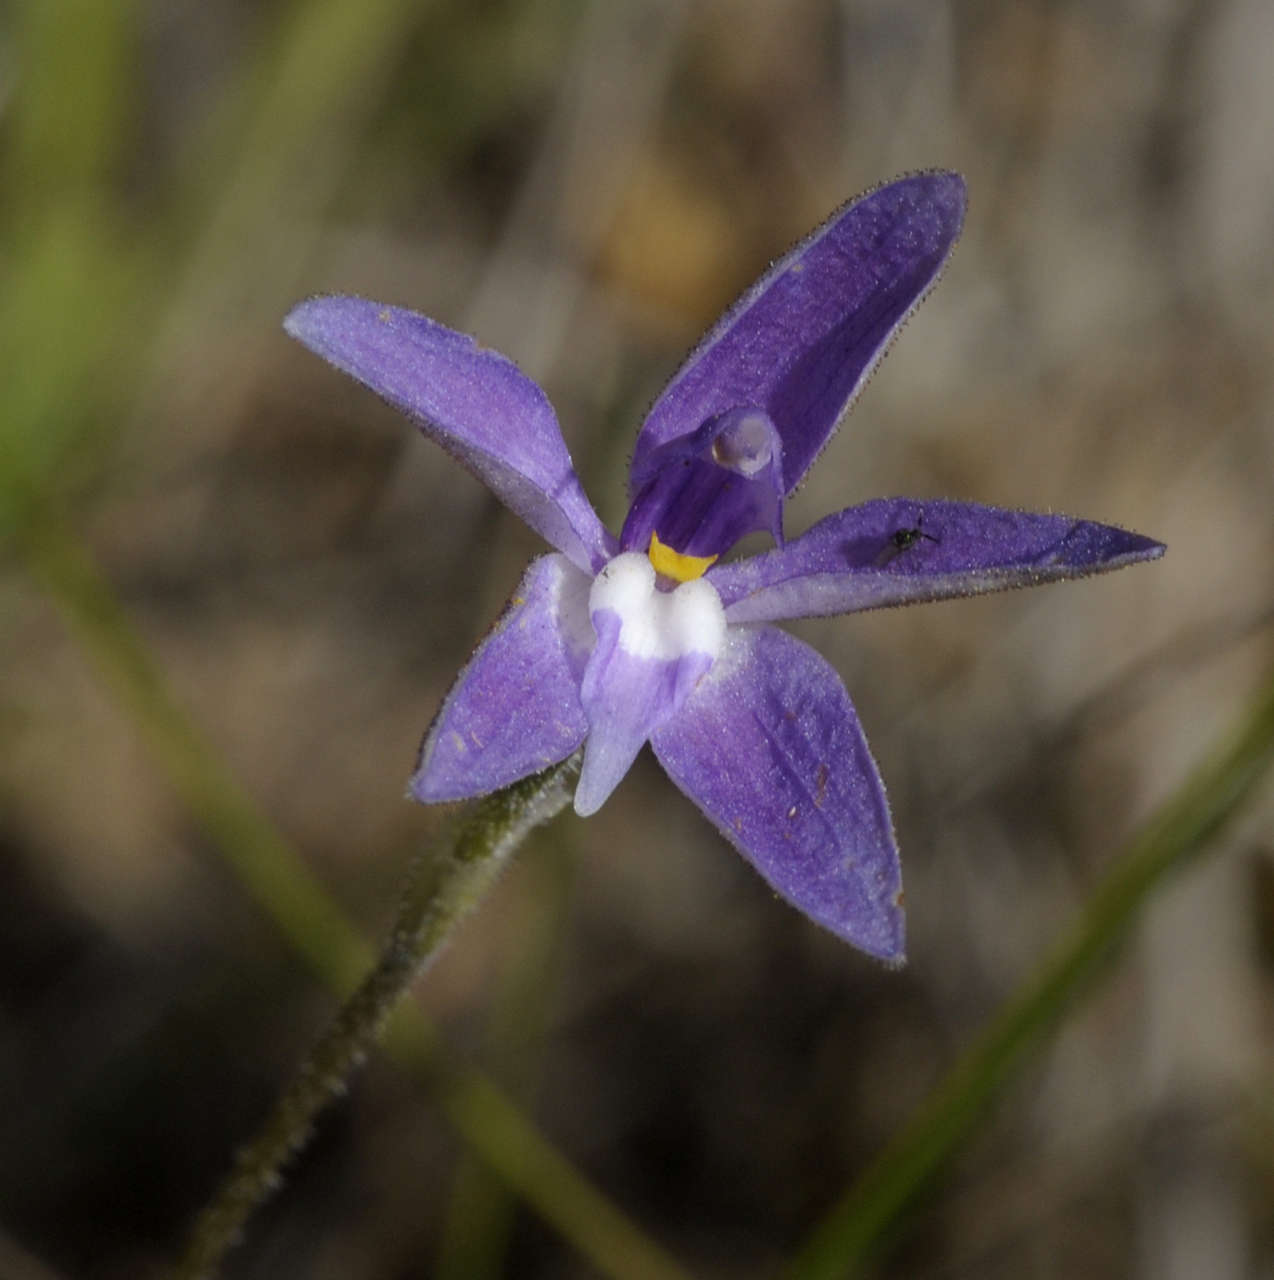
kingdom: Plantae
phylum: Tracheophyta
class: Liliopsida
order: Asparagales
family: Orchidaceae
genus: Caladenia
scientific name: Caladenia major
